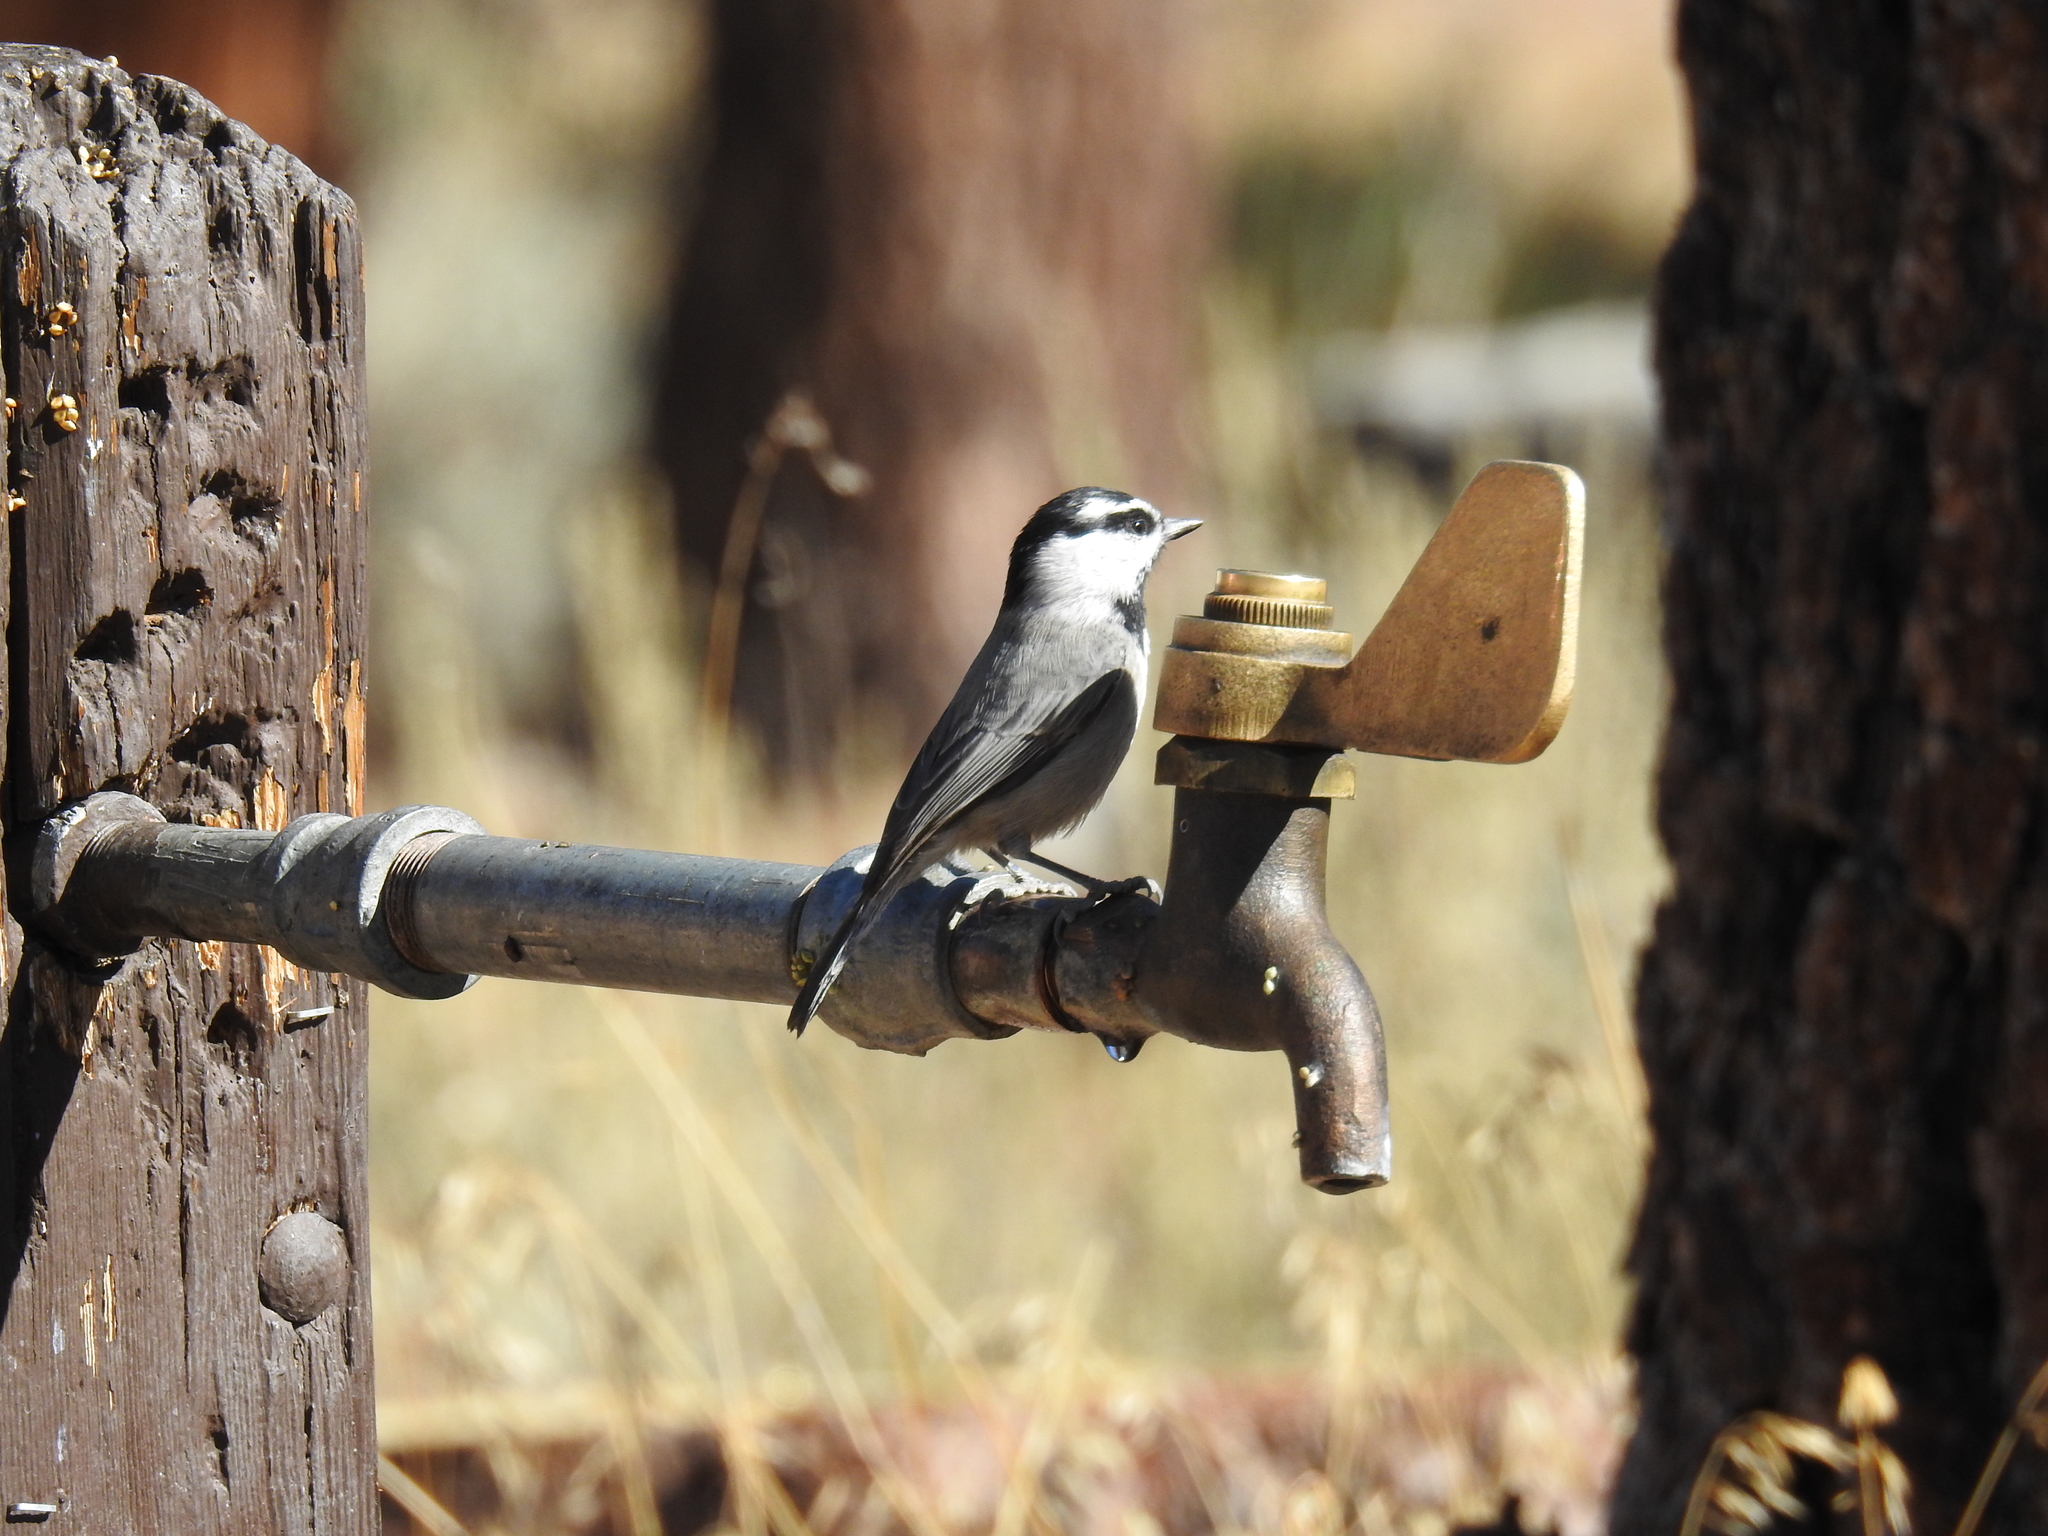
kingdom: Animalia
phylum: Chordata
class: Aves
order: Passeriformes
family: Paridae
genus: Poecile
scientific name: Poecile gambeli
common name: Mountain chickadee
